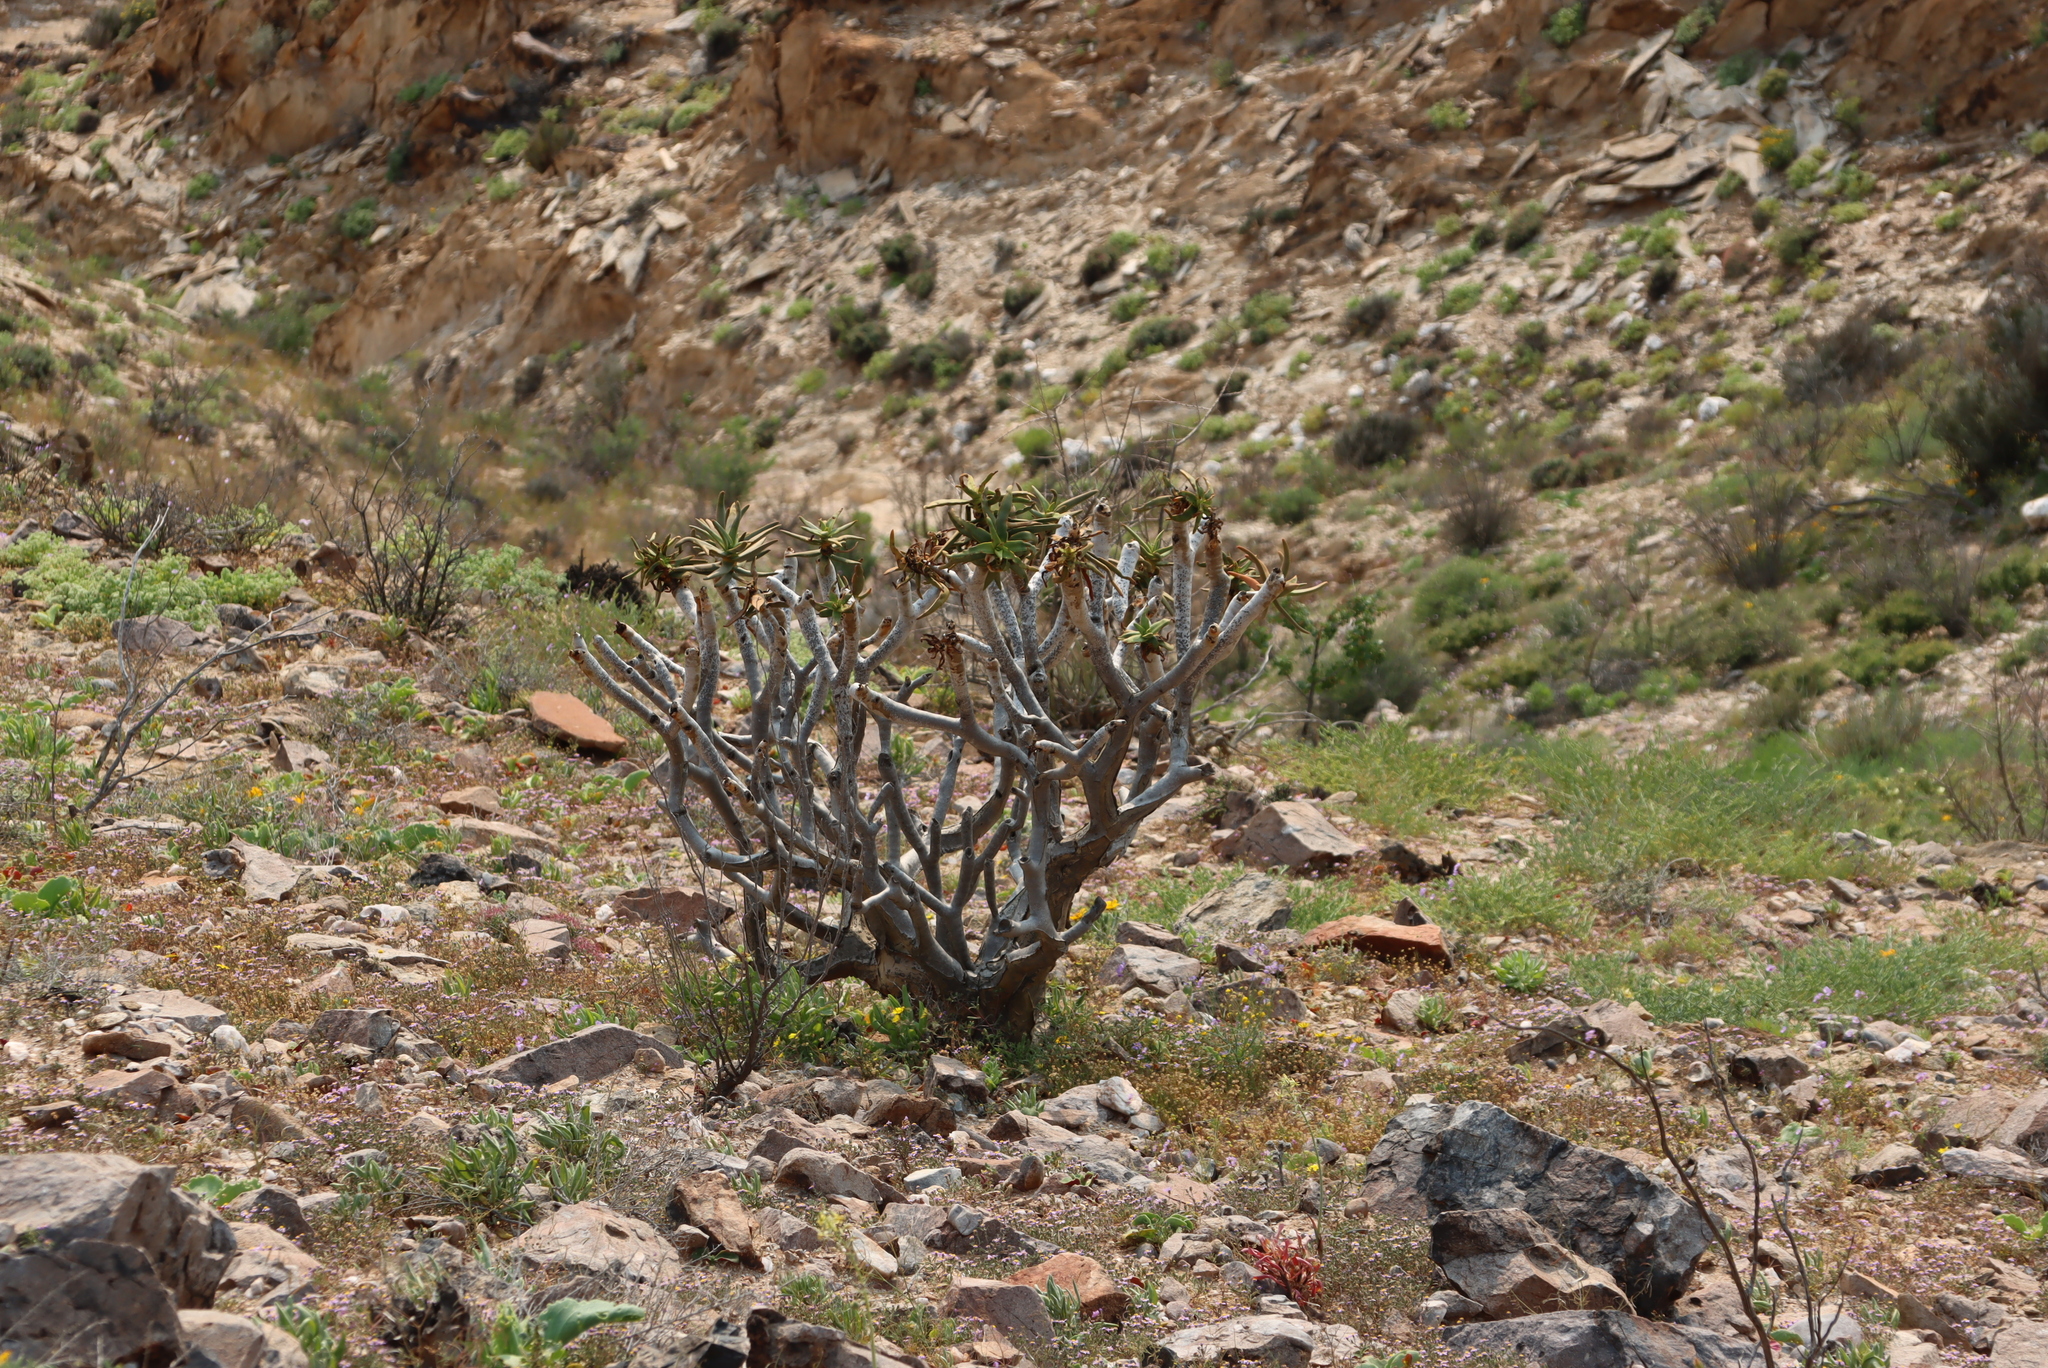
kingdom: Plantae
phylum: Tracheophyta
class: Liliopsida
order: Asparagales
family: Asphodelaceae
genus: Aloidendron
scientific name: Aloidendron ramosissimum
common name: Bush quiver tree
